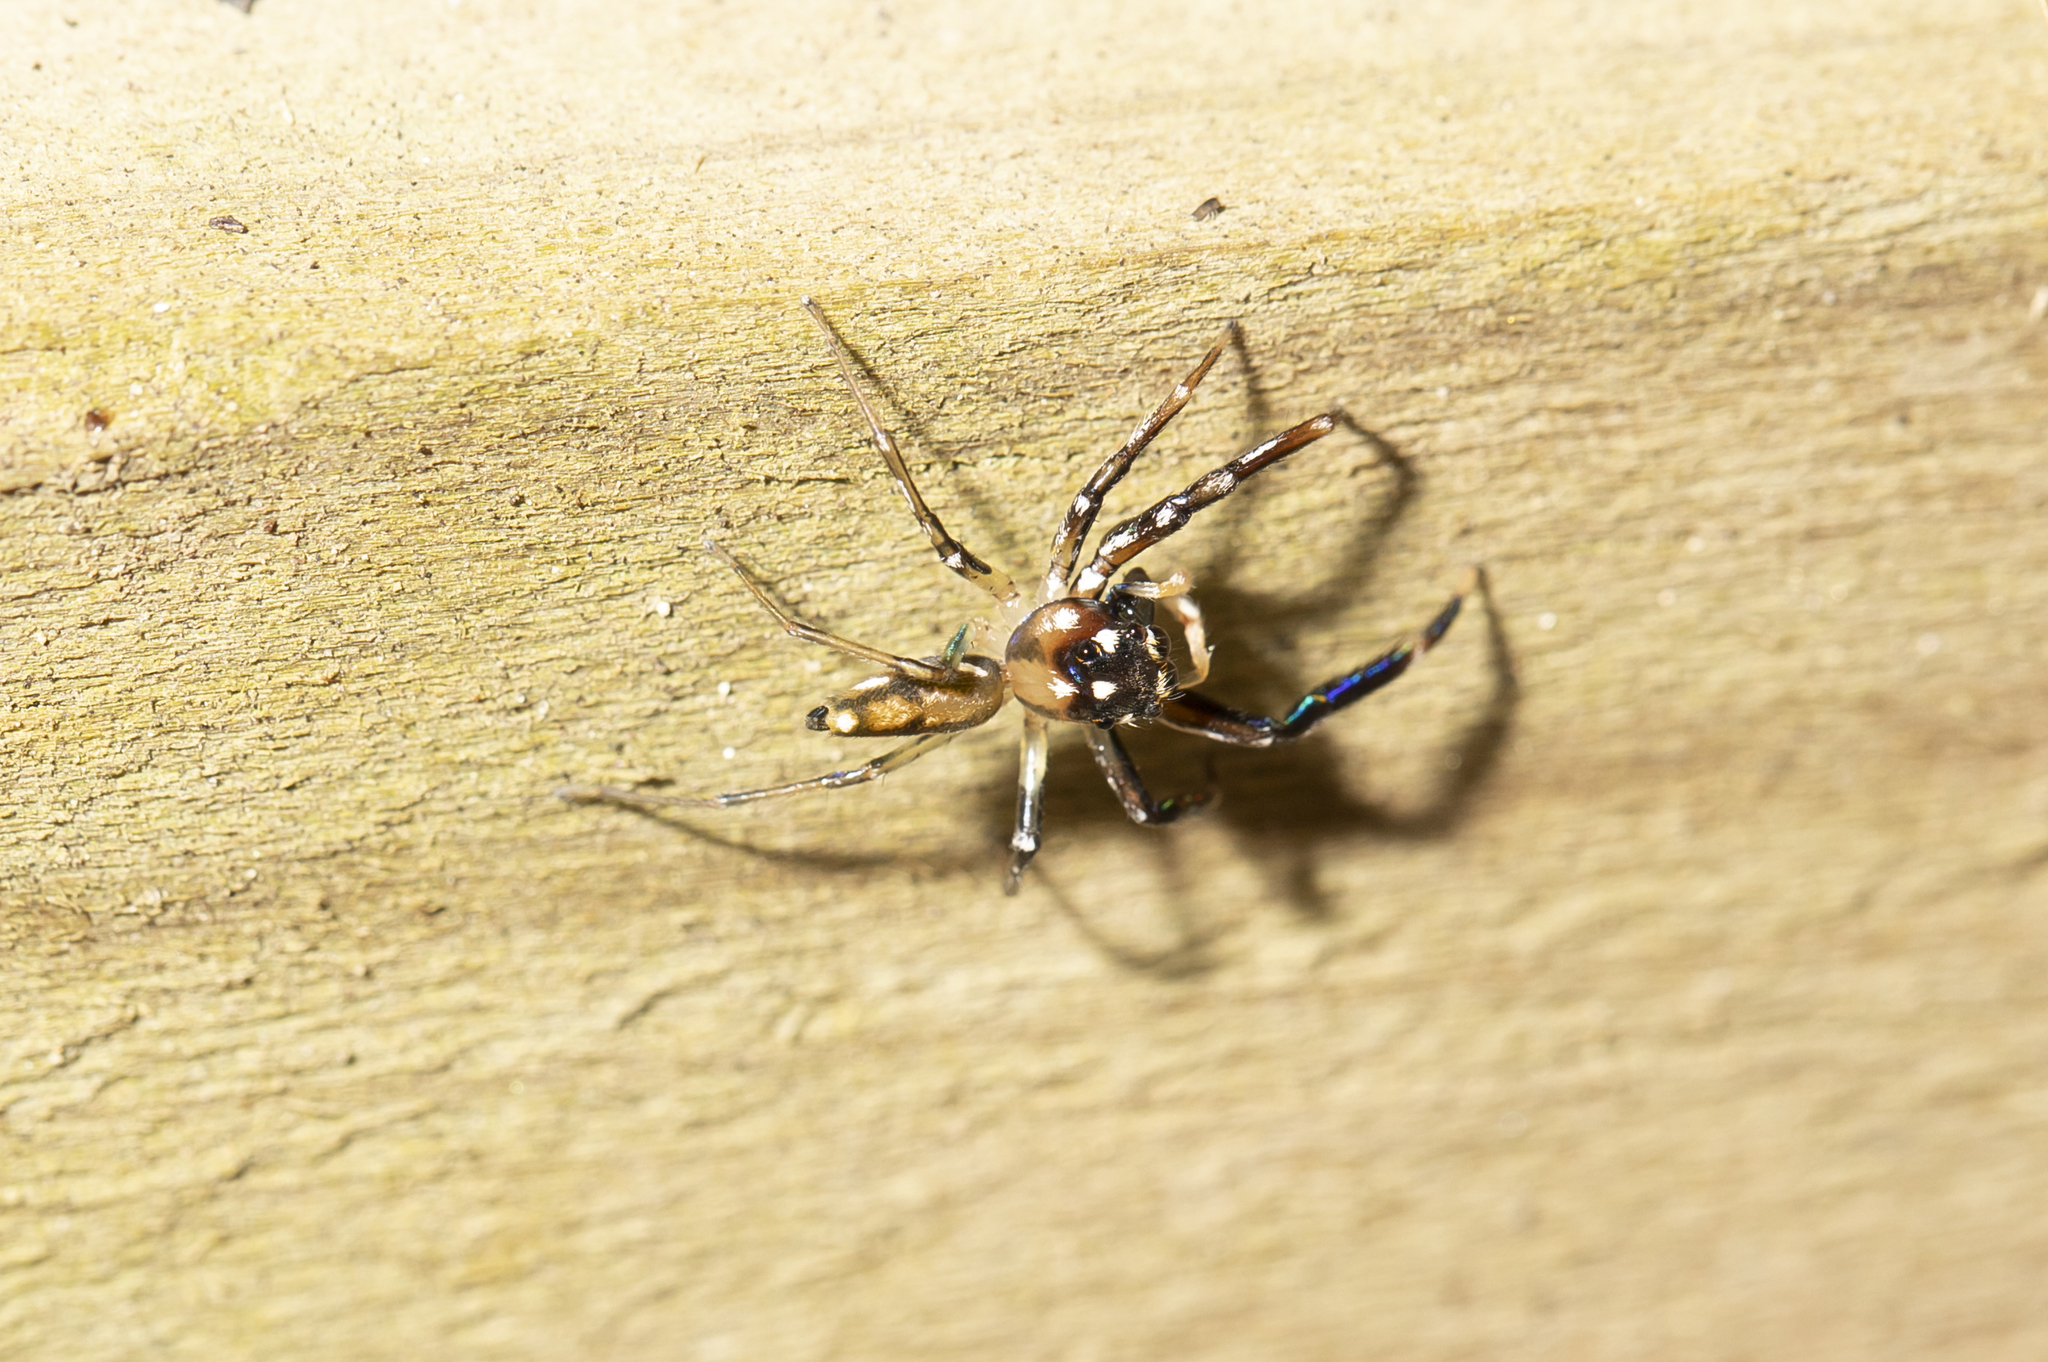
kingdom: Animalia
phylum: Arthropoda
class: Arachnida
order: Araneae
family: Salticidae
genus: Tauala
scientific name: Tauala lepidus
